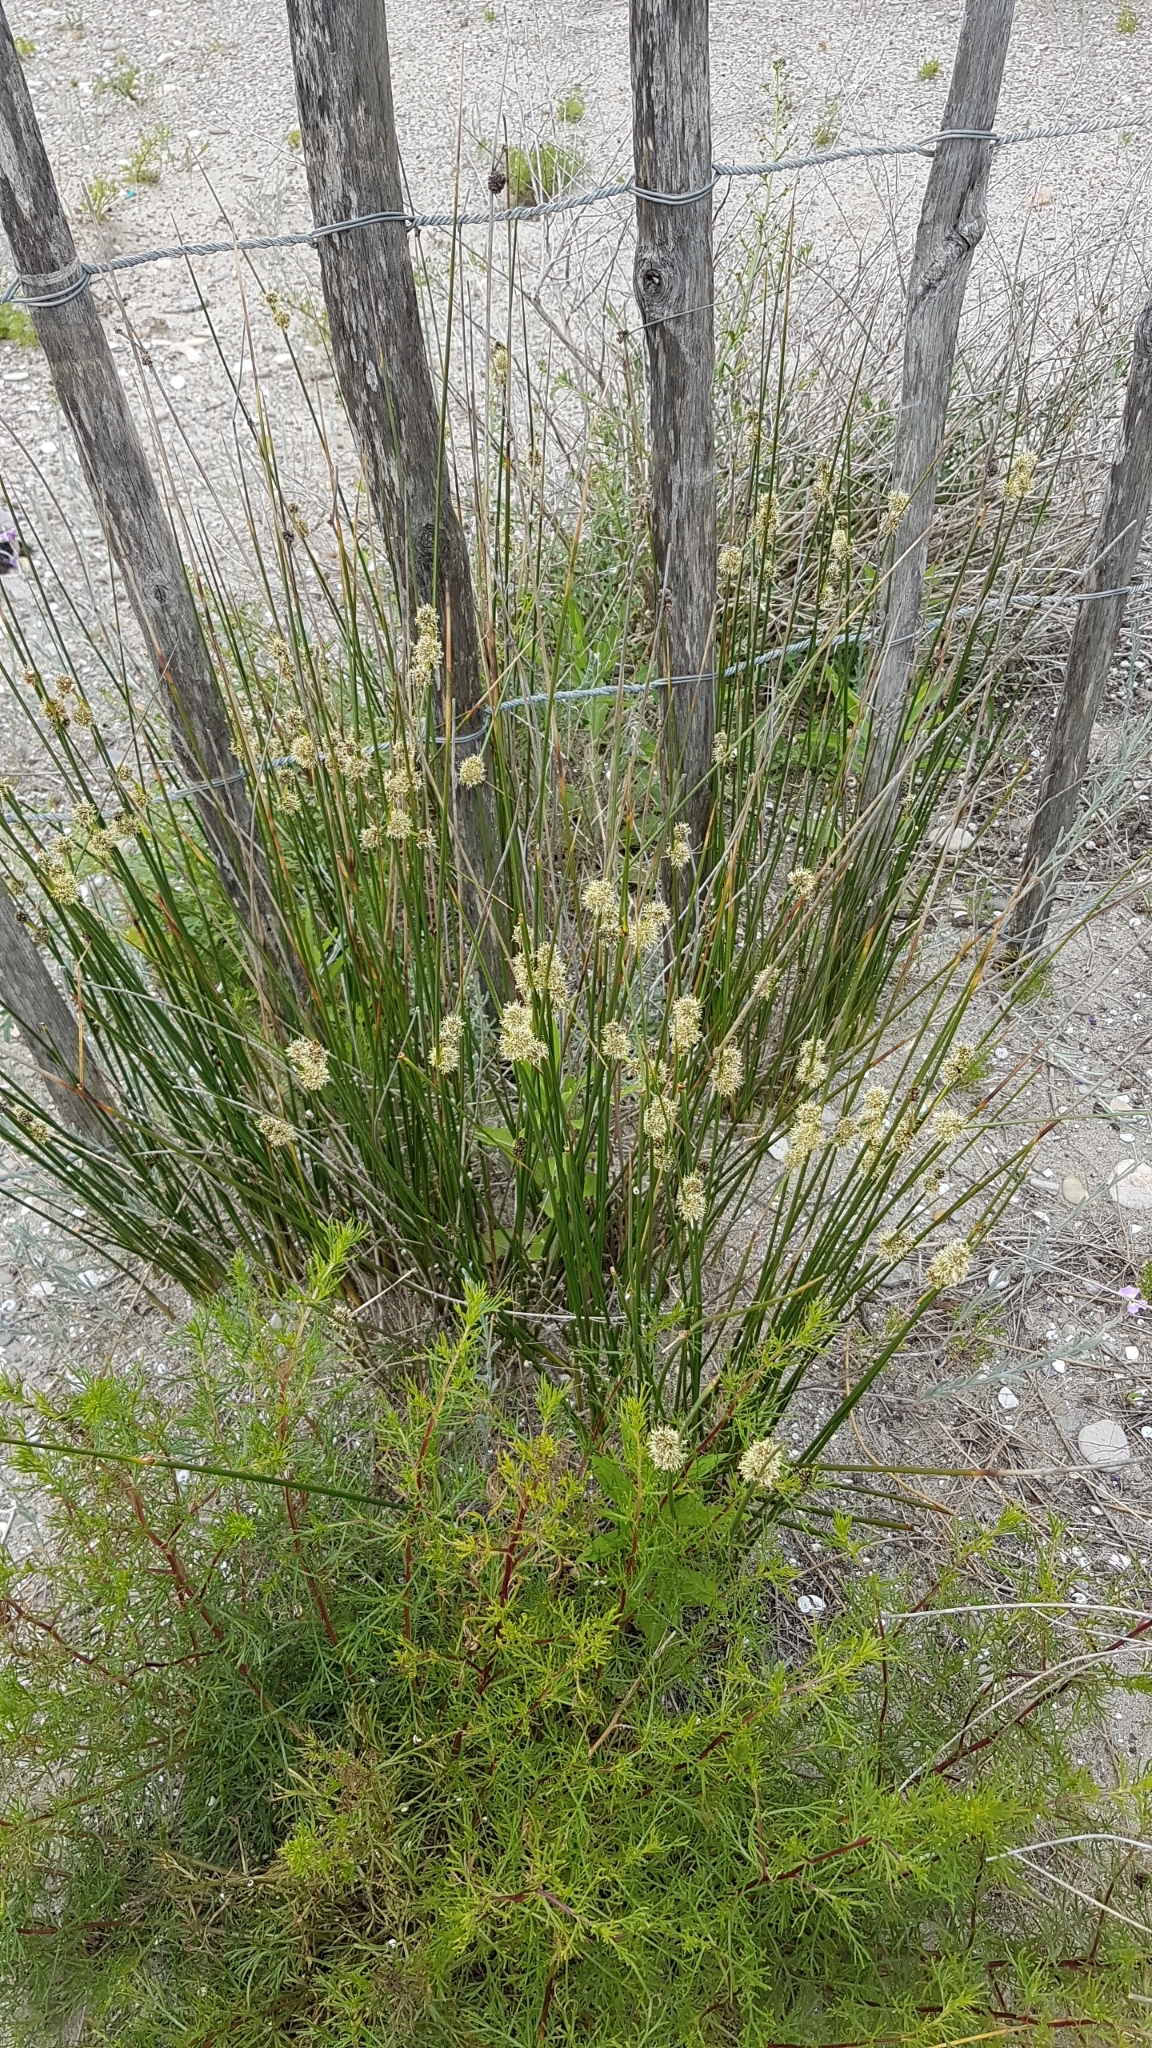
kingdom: Plantae
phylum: Tracheophyta
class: Liliopsida
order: Poales
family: Cyperaceae
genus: Scirpoides
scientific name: Scirpoides holoschoenus
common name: Round-headed club-rush
